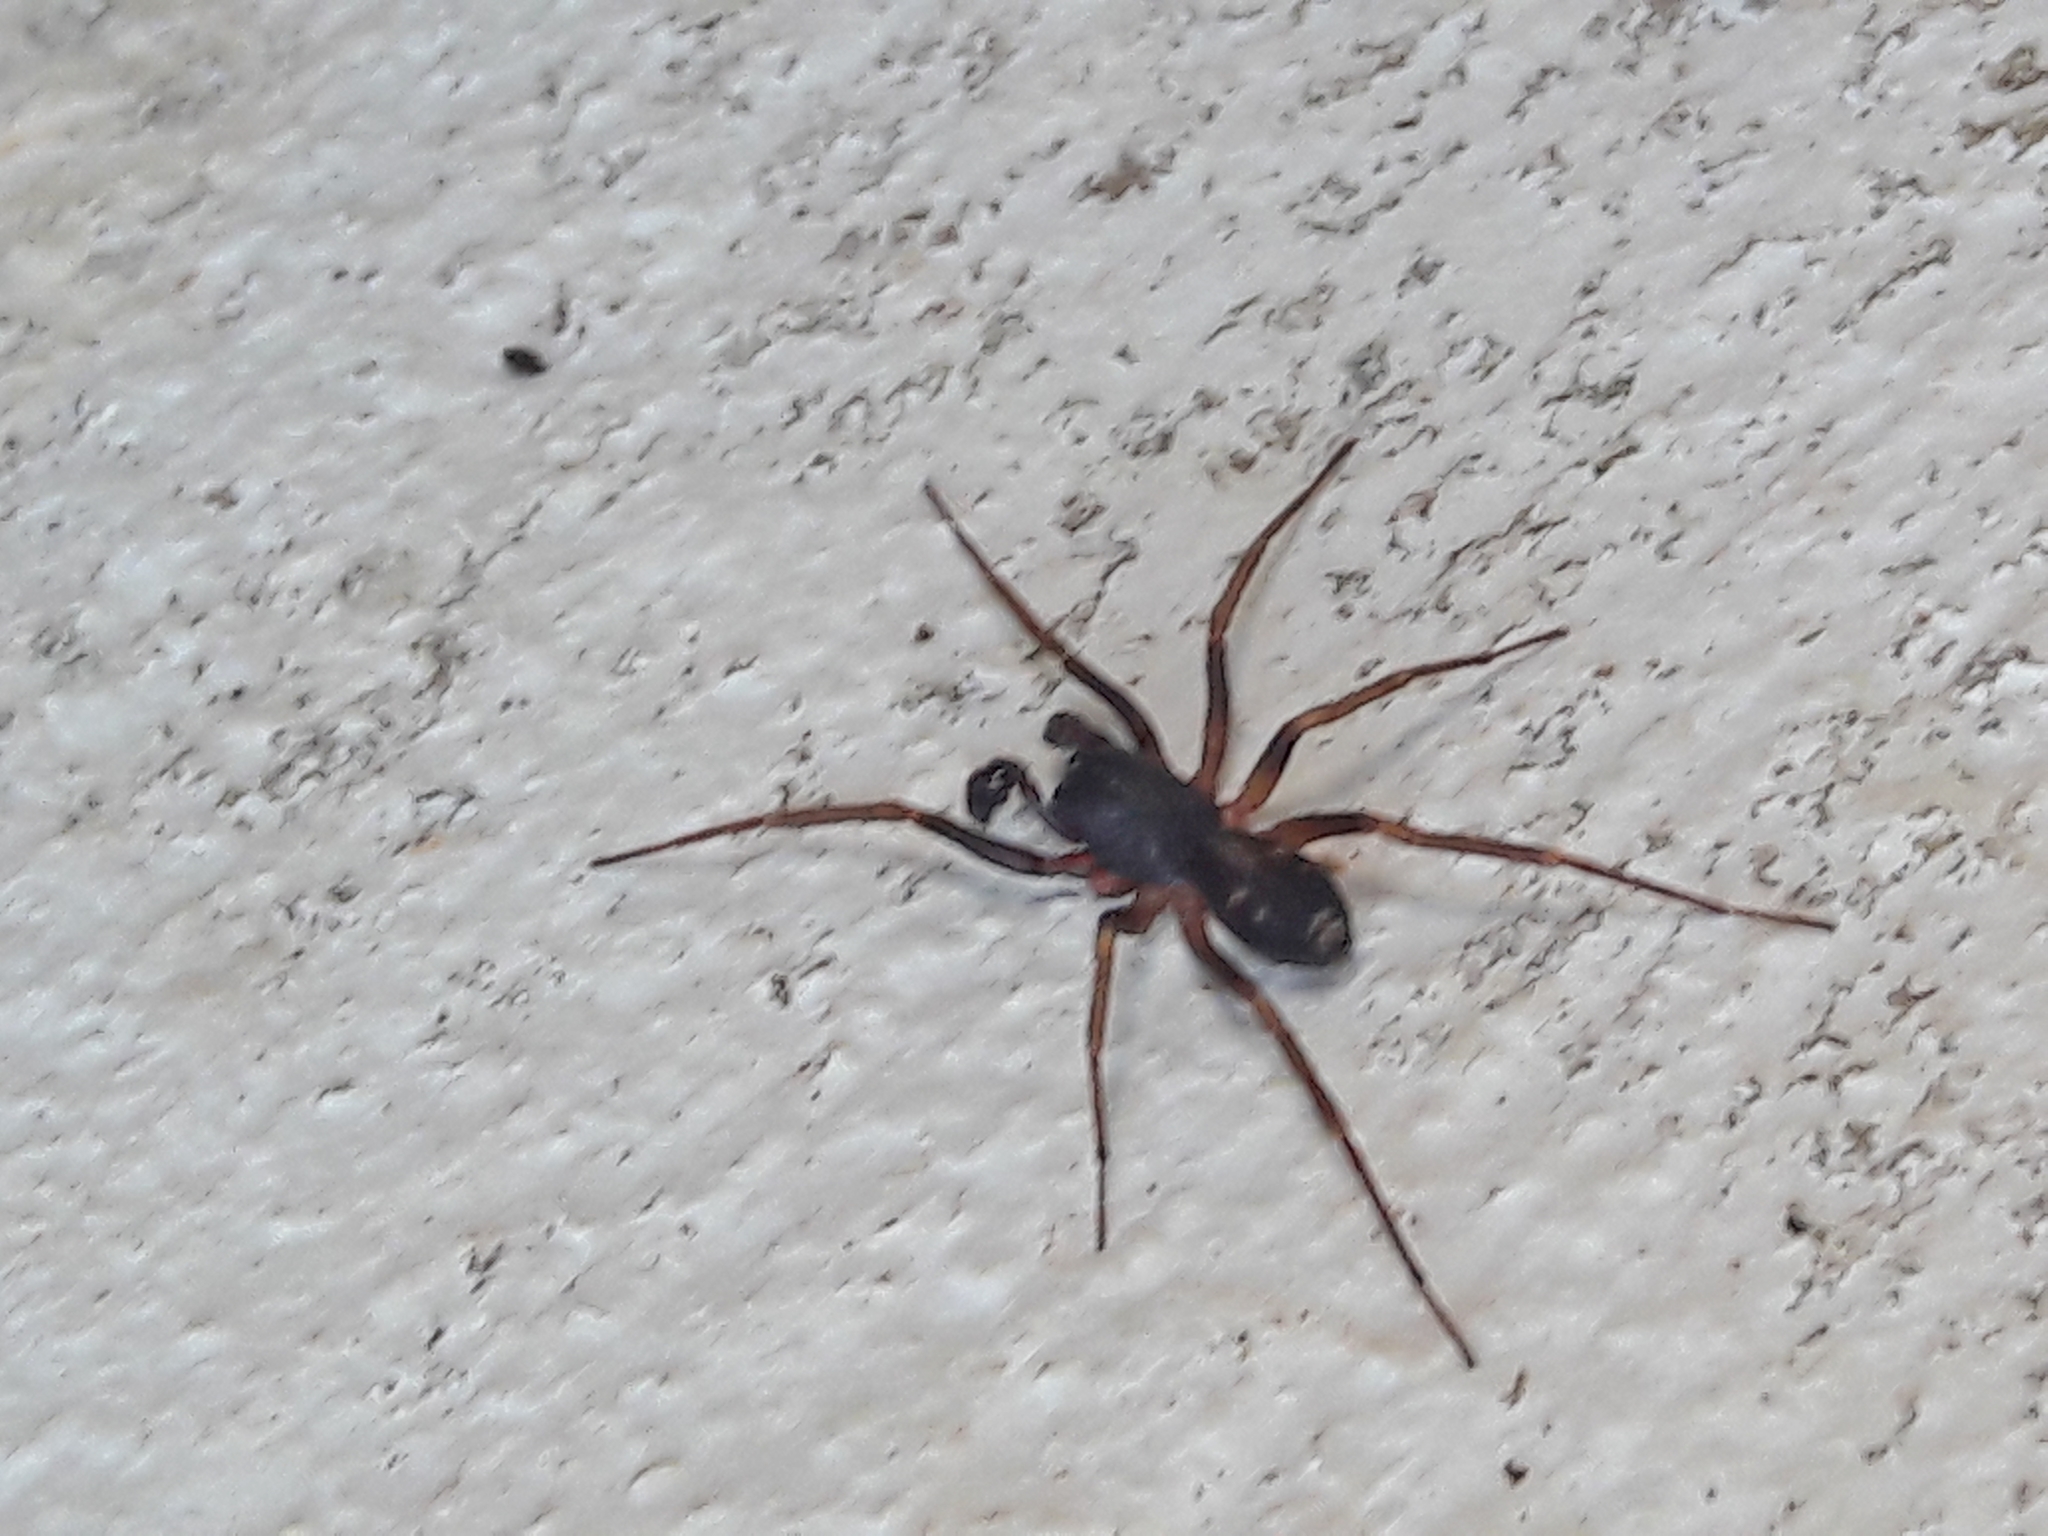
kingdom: Animalia
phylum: Arthropoda
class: Arachnida
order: Araneae
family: Corinnidae
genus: Falconina
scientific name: Falconina gracilis
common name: Antmimic spider
